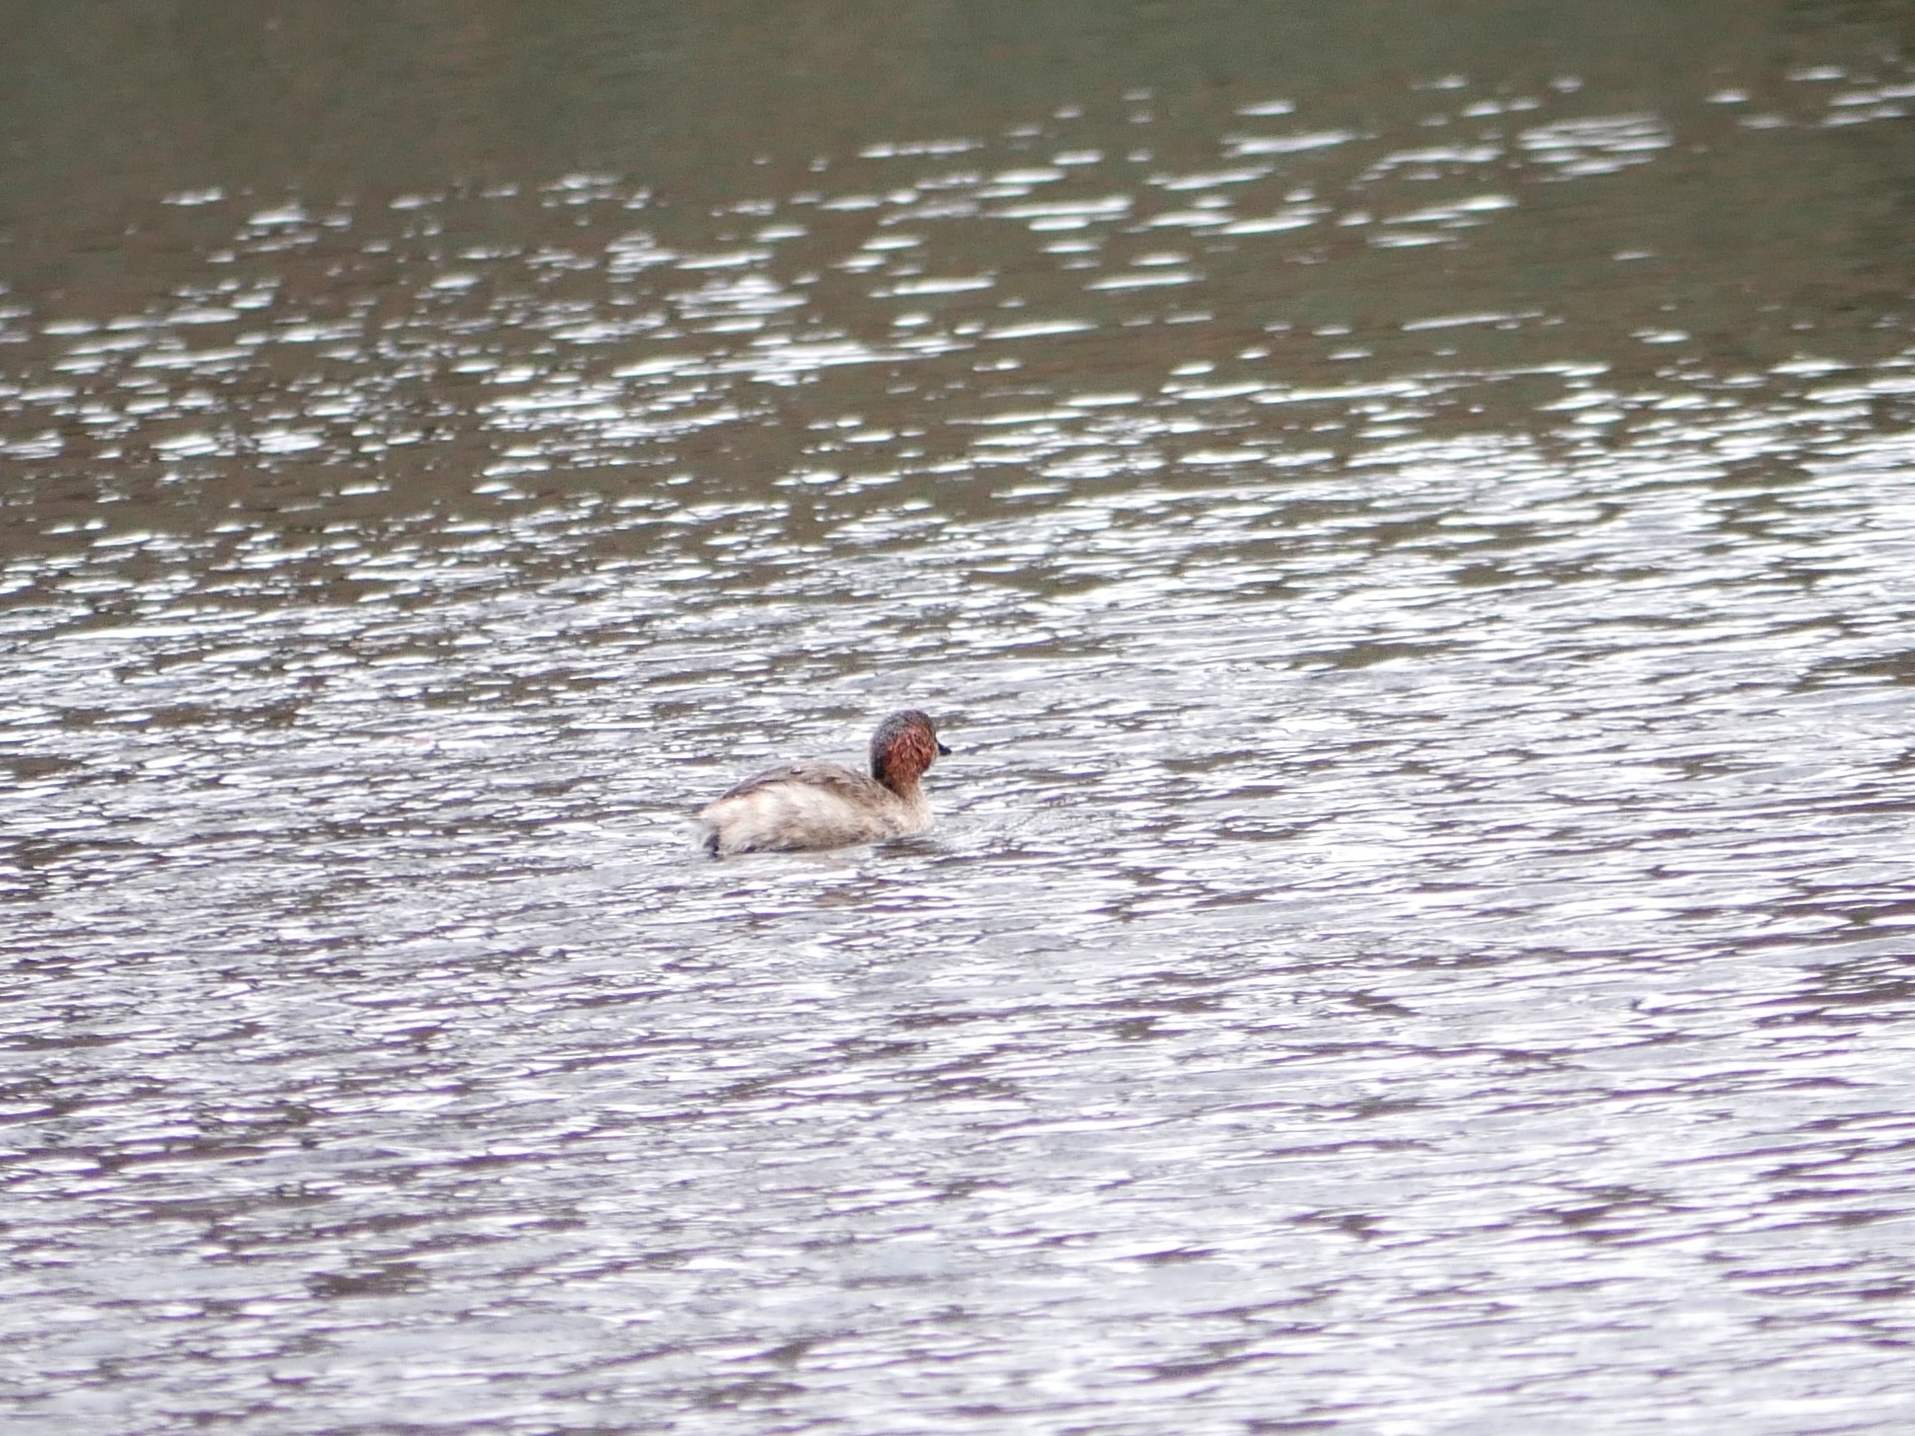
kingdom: Animalia
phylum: Chordata
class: Aves
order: Podicipediformes
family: Podicipedidae
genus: Tachybaptus
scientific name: Tachybaptus ruficollis
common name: Little grebe
